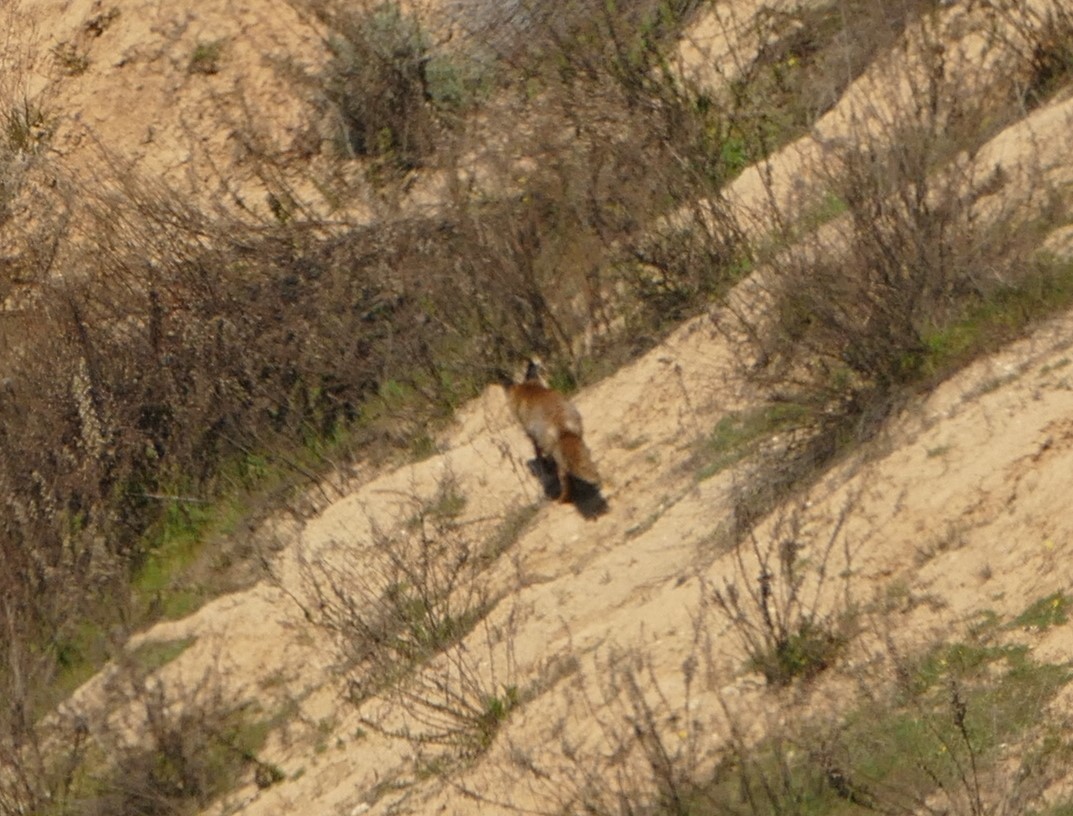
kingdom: Animalia
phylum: Chordata
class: Mammalia
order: Carnivora
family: Canidae
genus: Vulpes
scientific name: Vulpes vulpes
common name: Red fox
